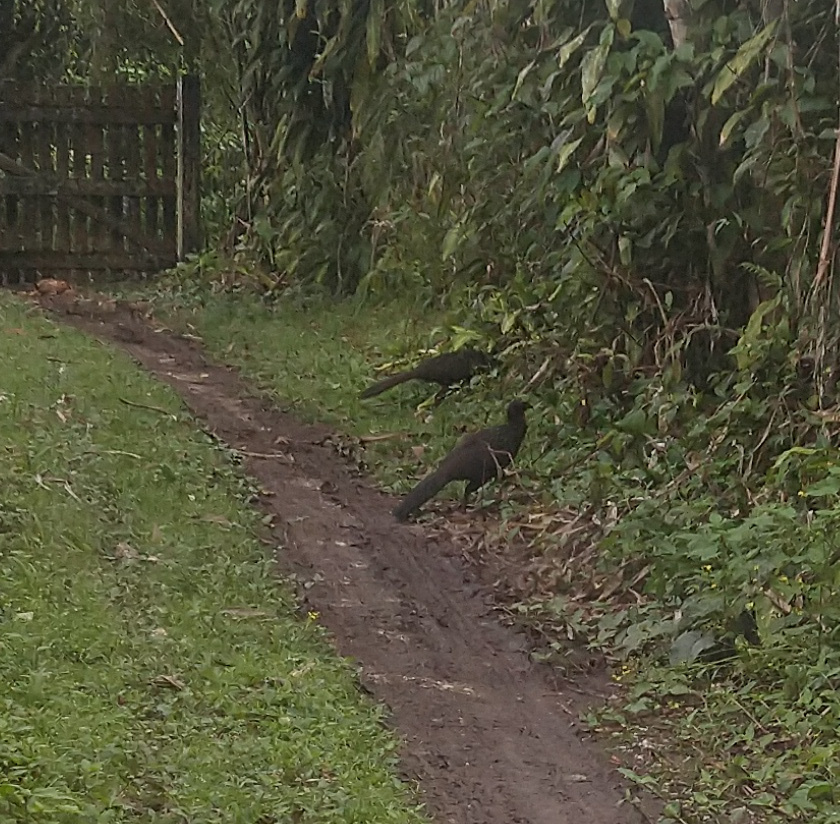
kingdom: Animalia
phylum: Chordata
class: Aves
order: Galliformes
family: Cracidae
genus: Penelope
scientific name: Penelope obscura
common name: Dusky-legged guan
